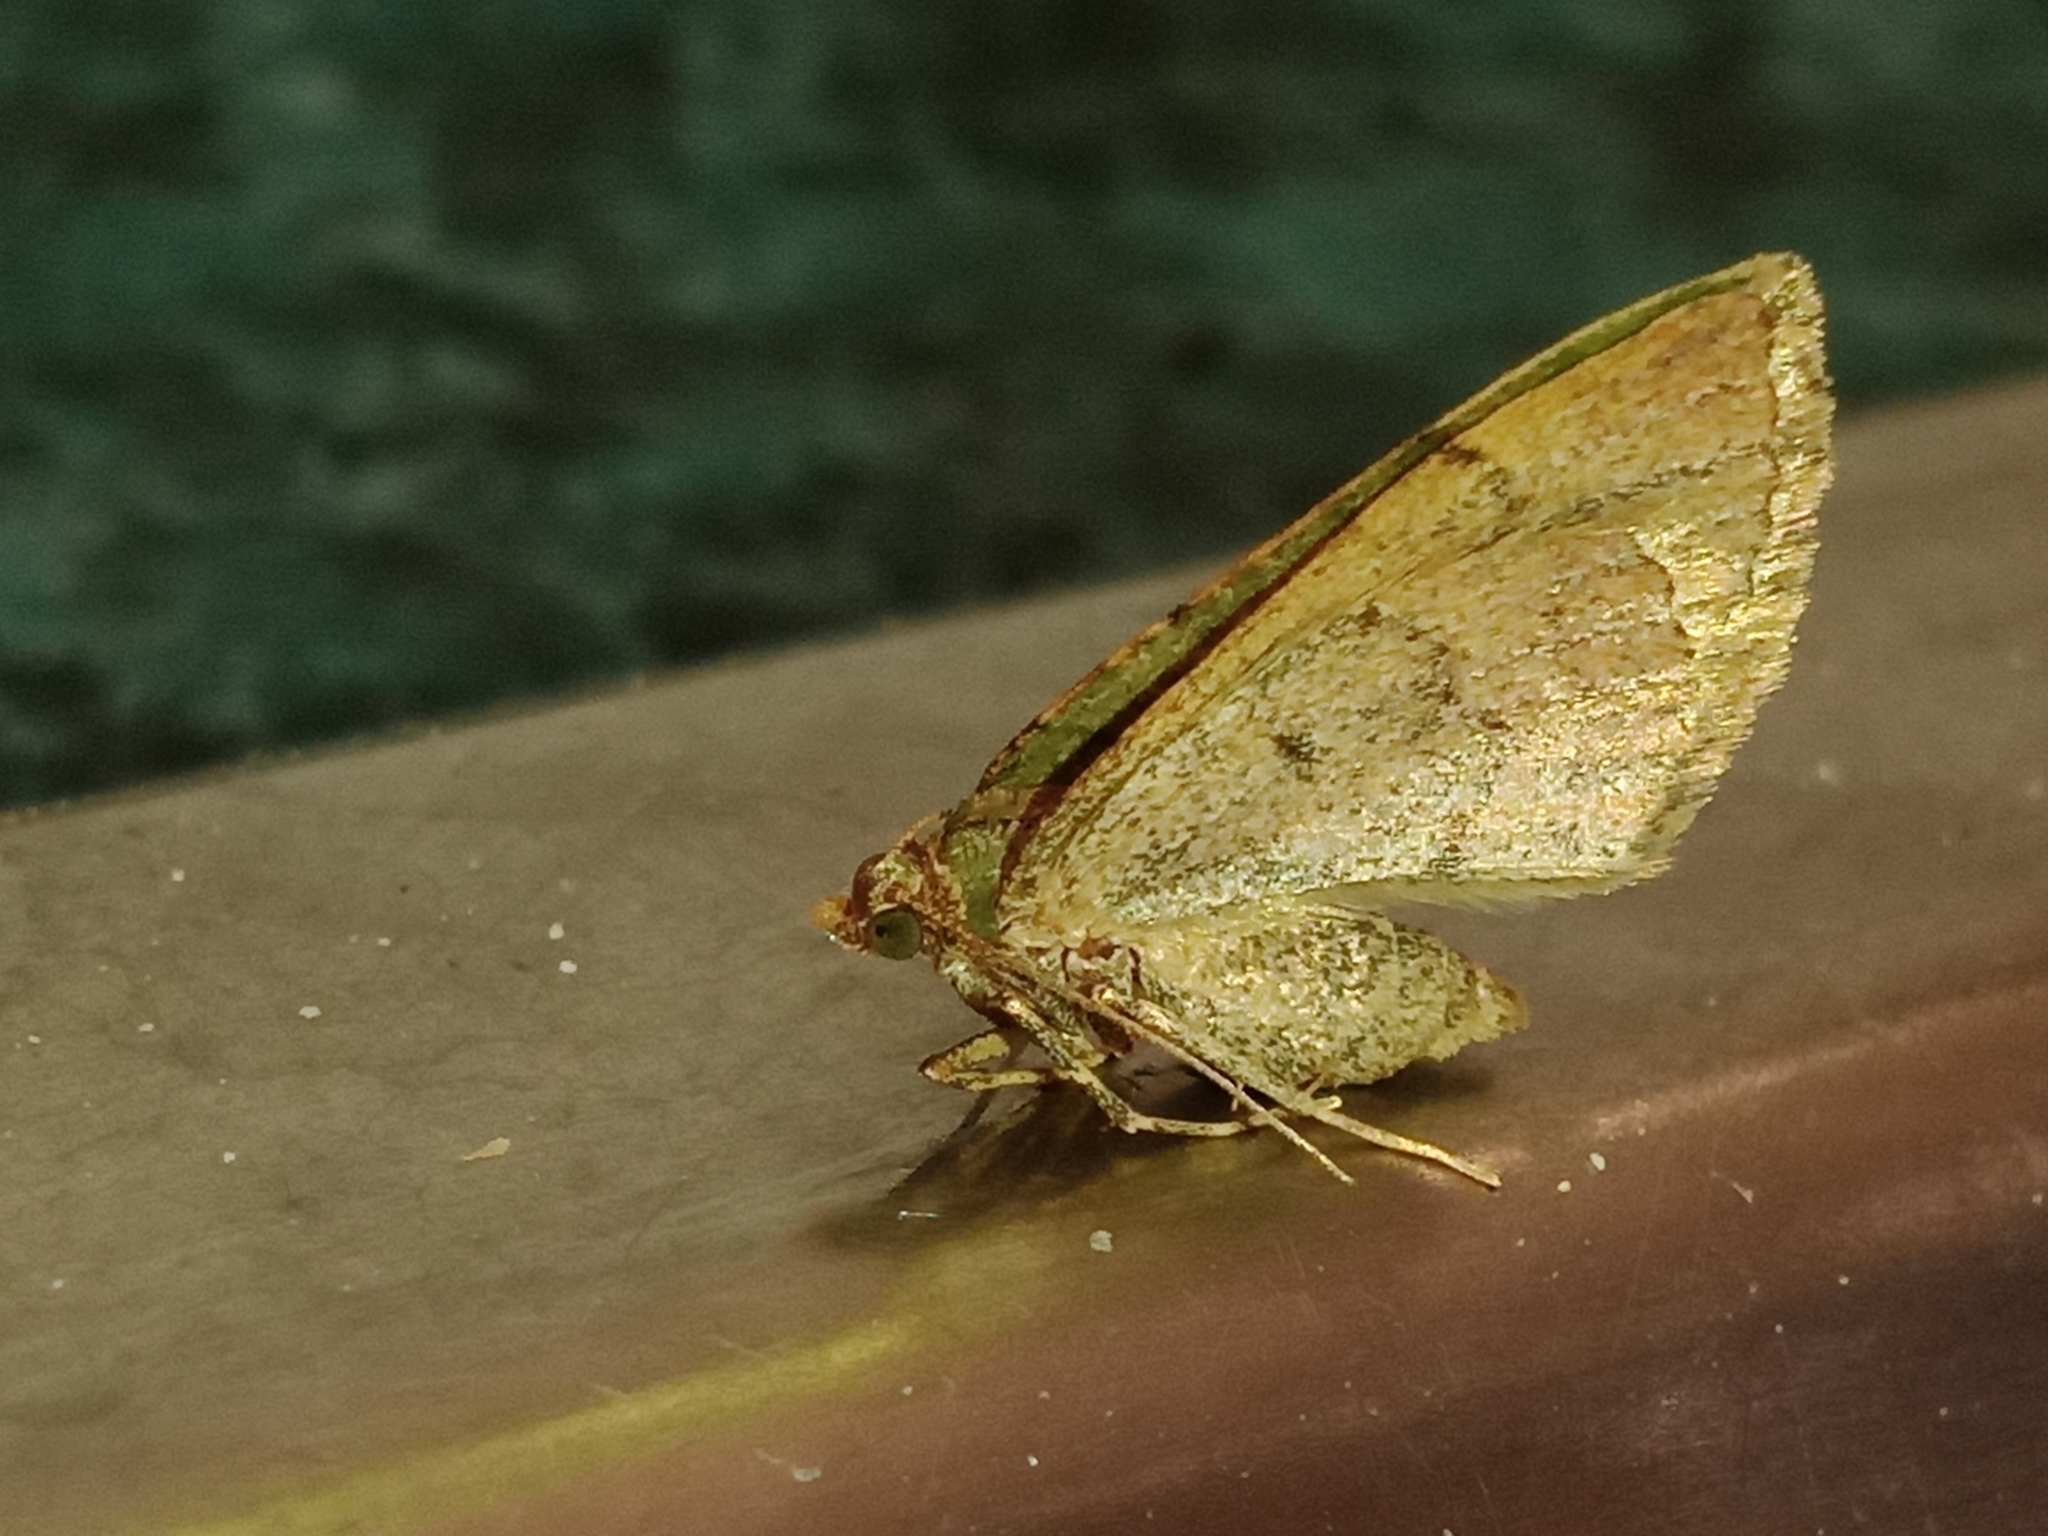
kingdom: Animalia
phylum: Arthropoda
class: Insecta
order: Lepidoptera
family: Geometridae
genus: Epyaxa
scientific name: Epyaxa rosearia
